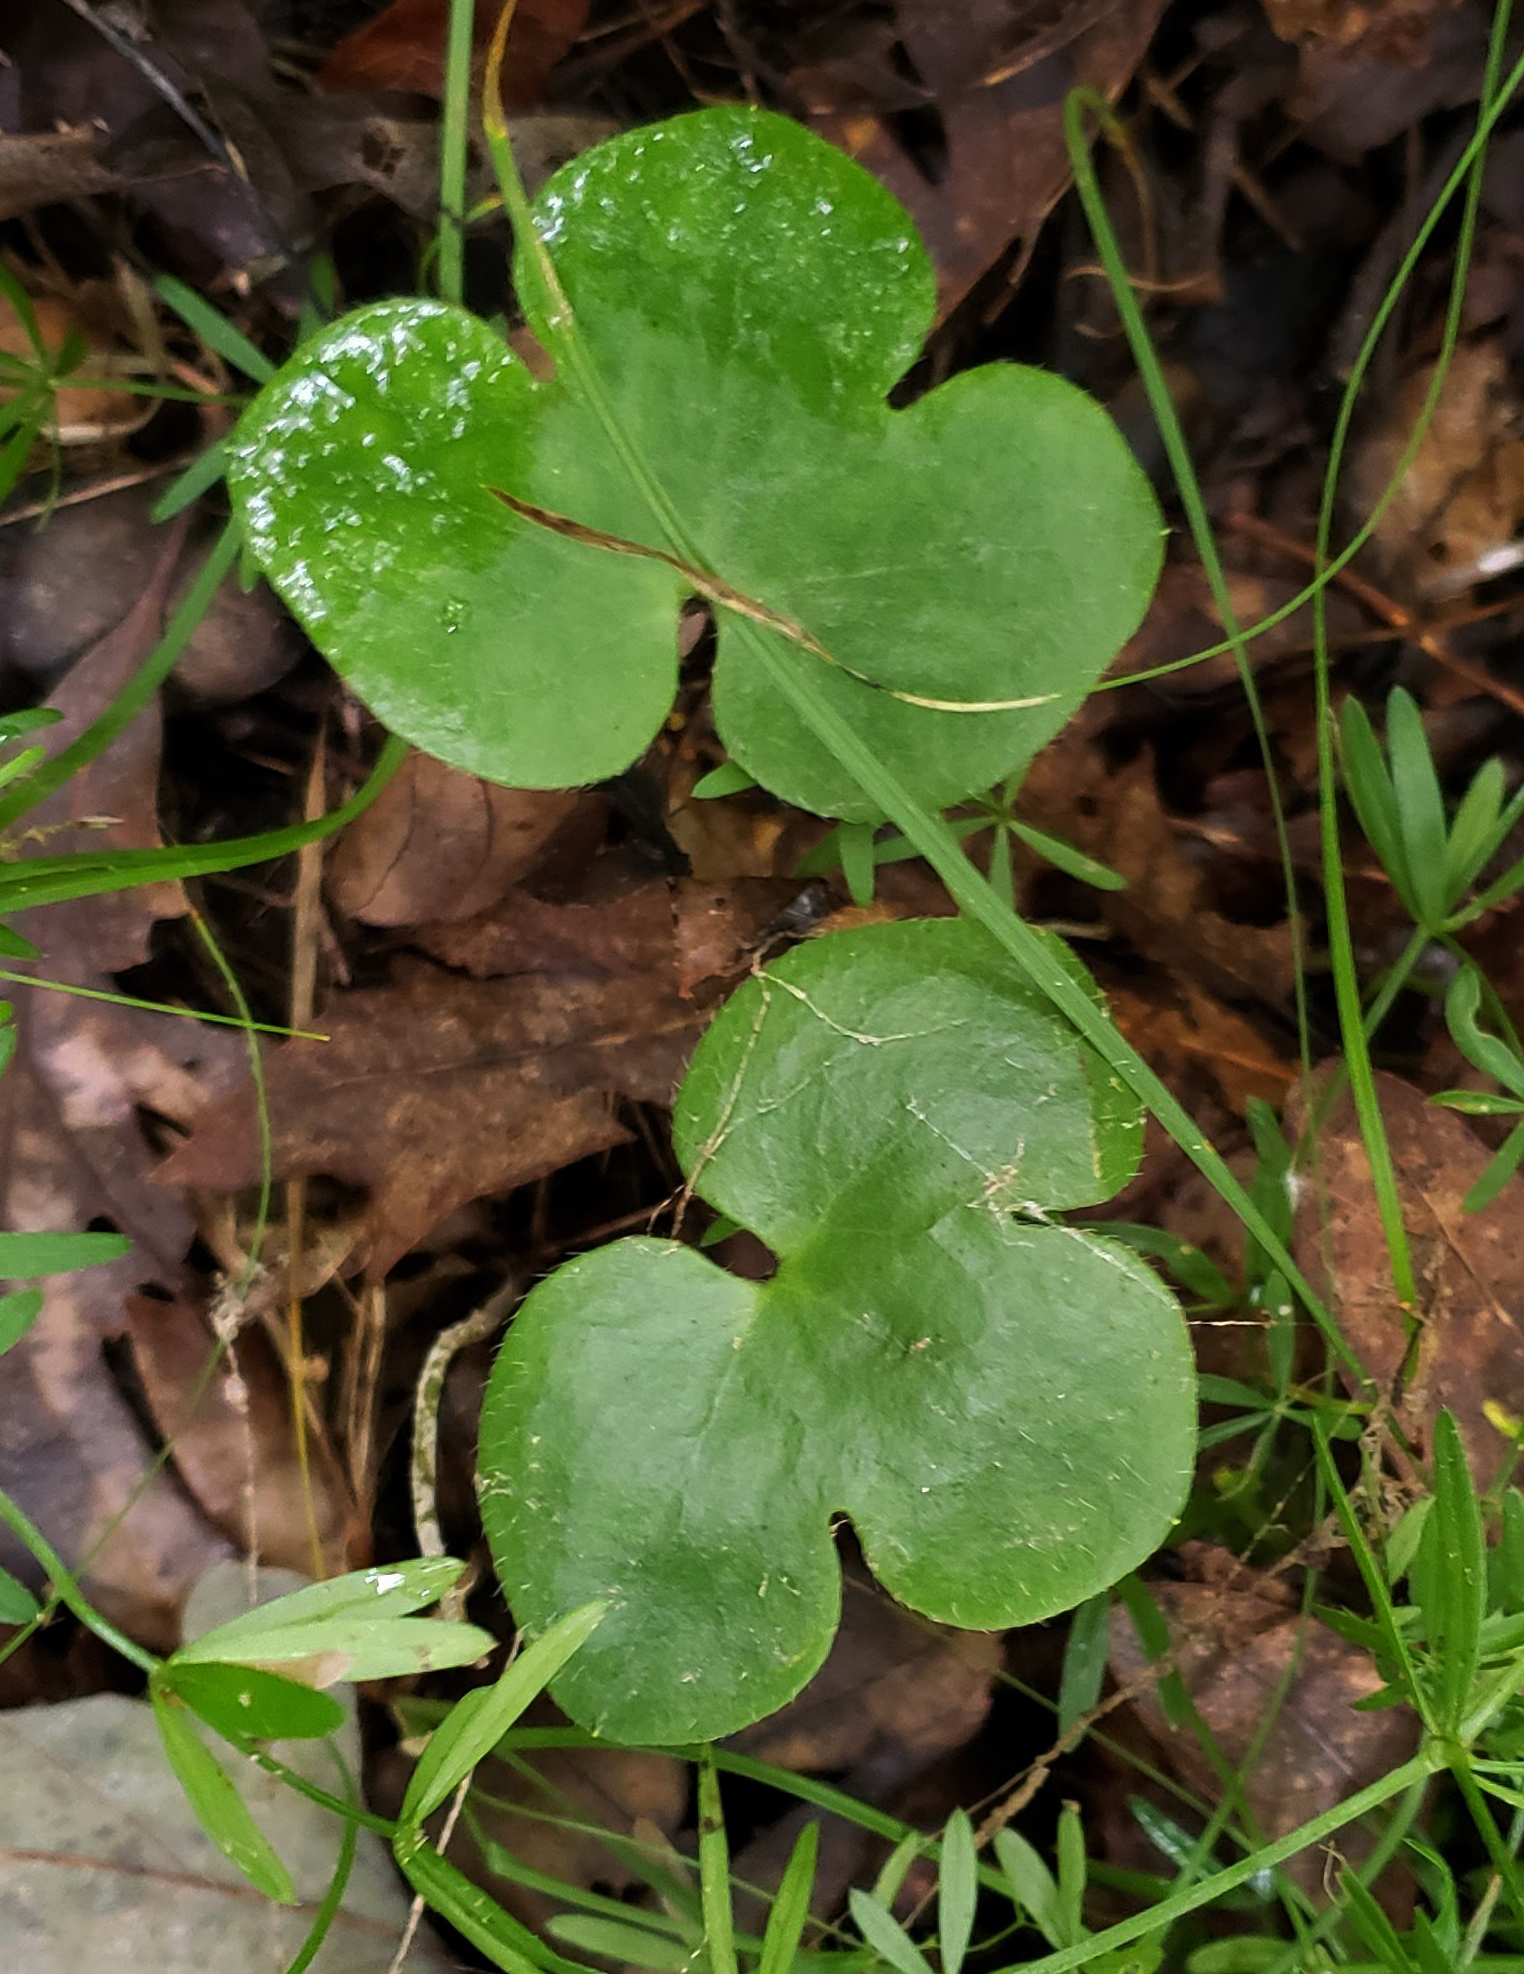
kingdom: Plantae
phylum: Tracheophyta
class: Magnoliopsida
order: Ranunculales
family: Ranunculaceae
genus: Hepatica
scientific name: Hepatica americana
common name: American hepatica
